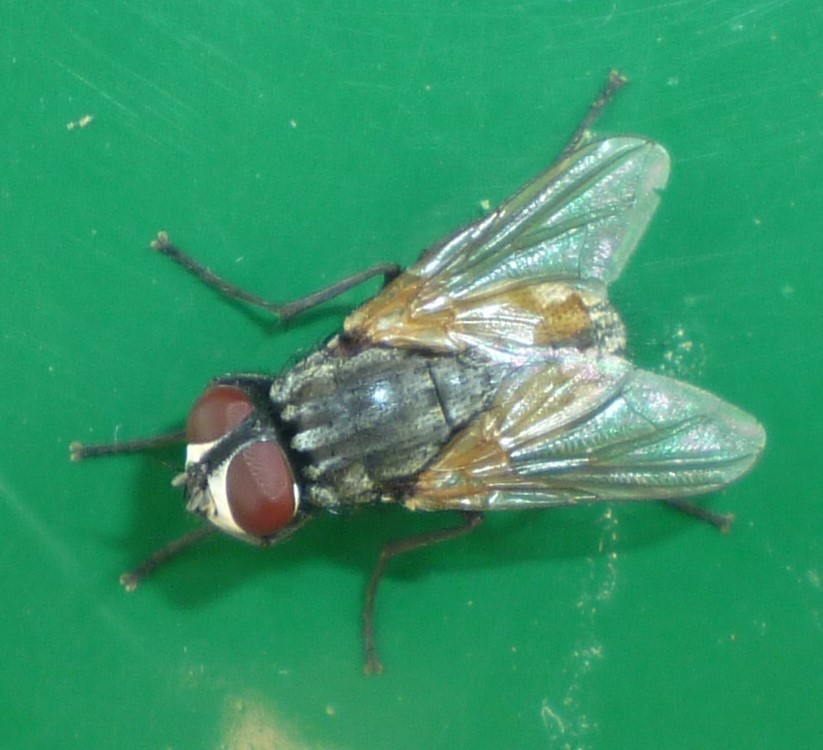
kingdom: Animalia
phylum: Arthropoda
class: Insecta
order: Diptera
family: Muscidae
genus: Musca
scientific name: Musca domestica
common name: House fly
